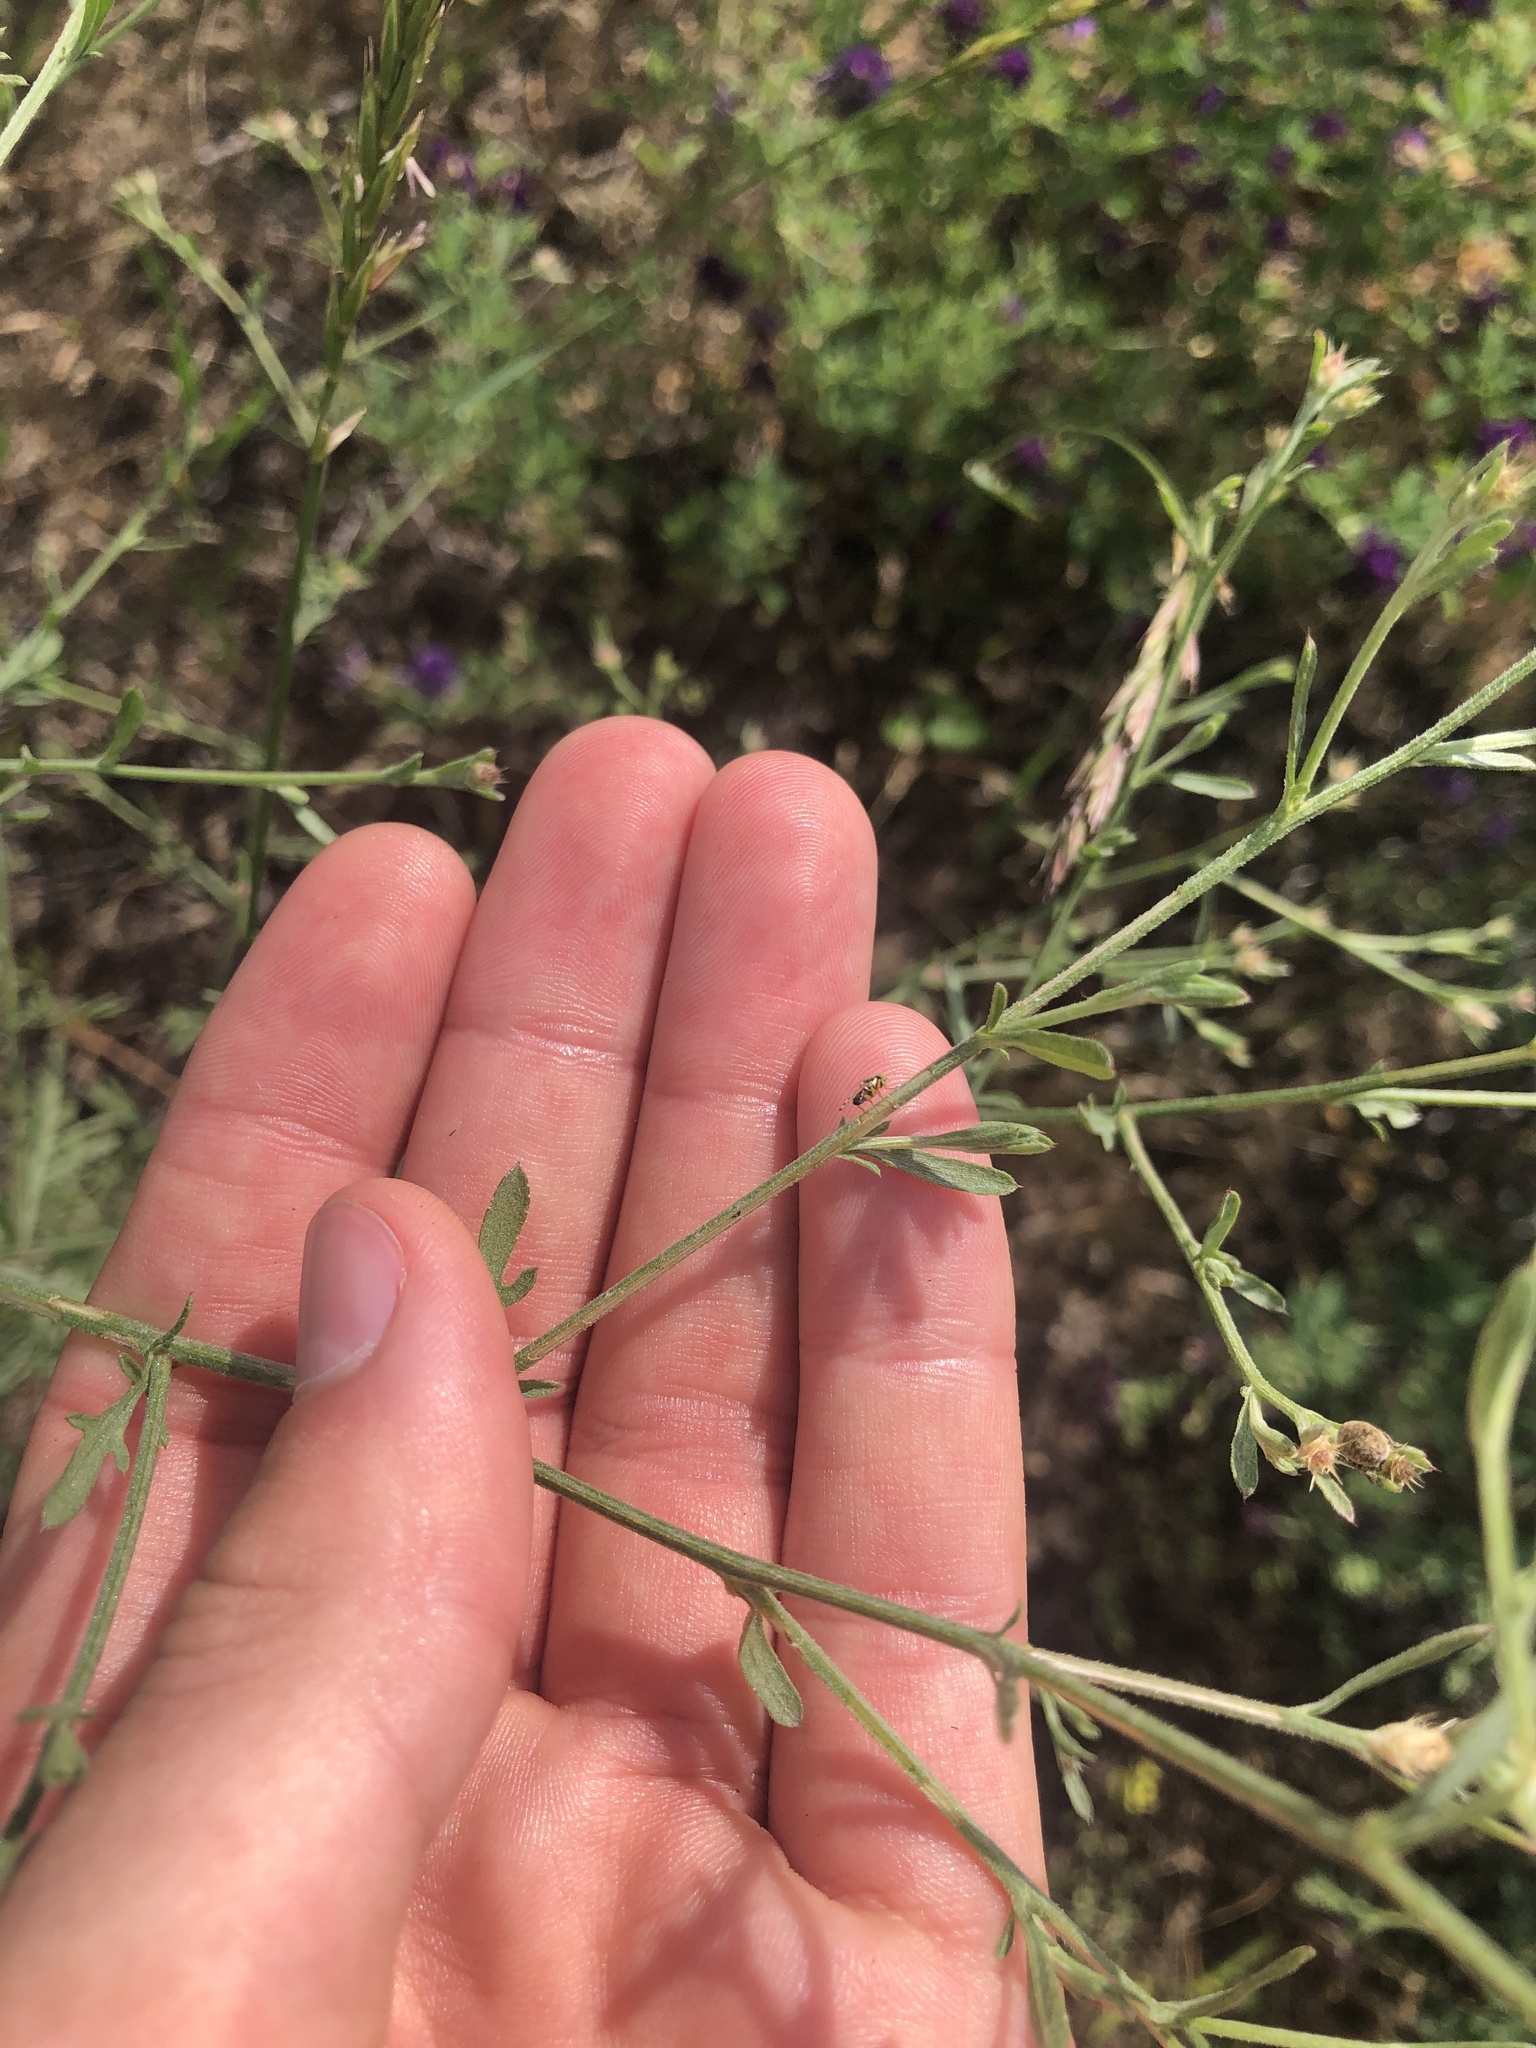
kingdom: Animalia
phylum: Arthropoda
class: Insecta
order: Diptera
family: Tephritidae
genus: Urophora
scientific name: Urophora affinis
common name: Fruit fly
